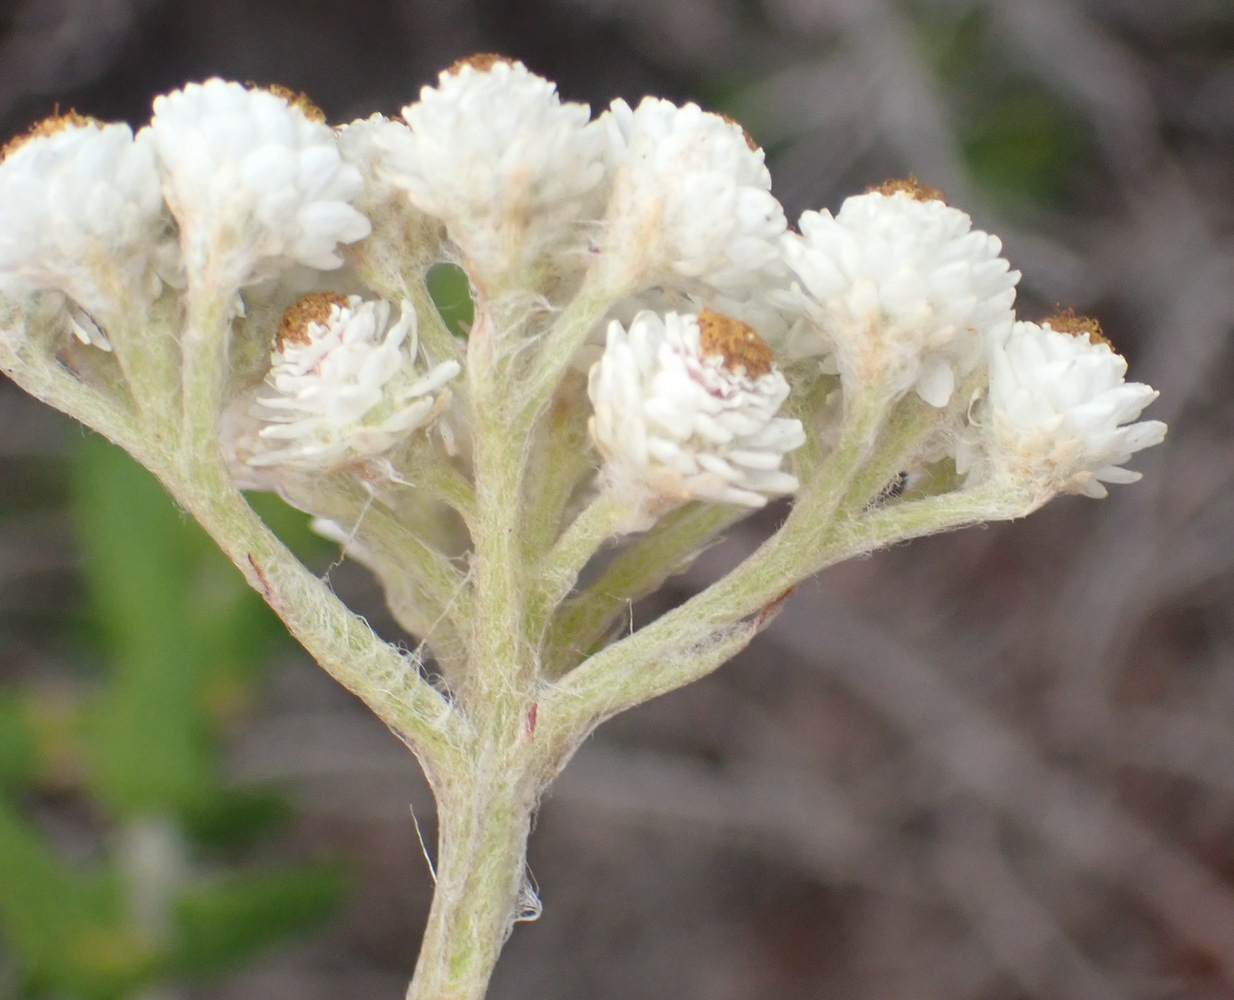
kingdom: Plantae
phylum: Tracheophyta
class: Magnoliopsida
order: Asterales
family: Asteraceae
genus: Helichrysum
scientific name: Helichrysum felinum
